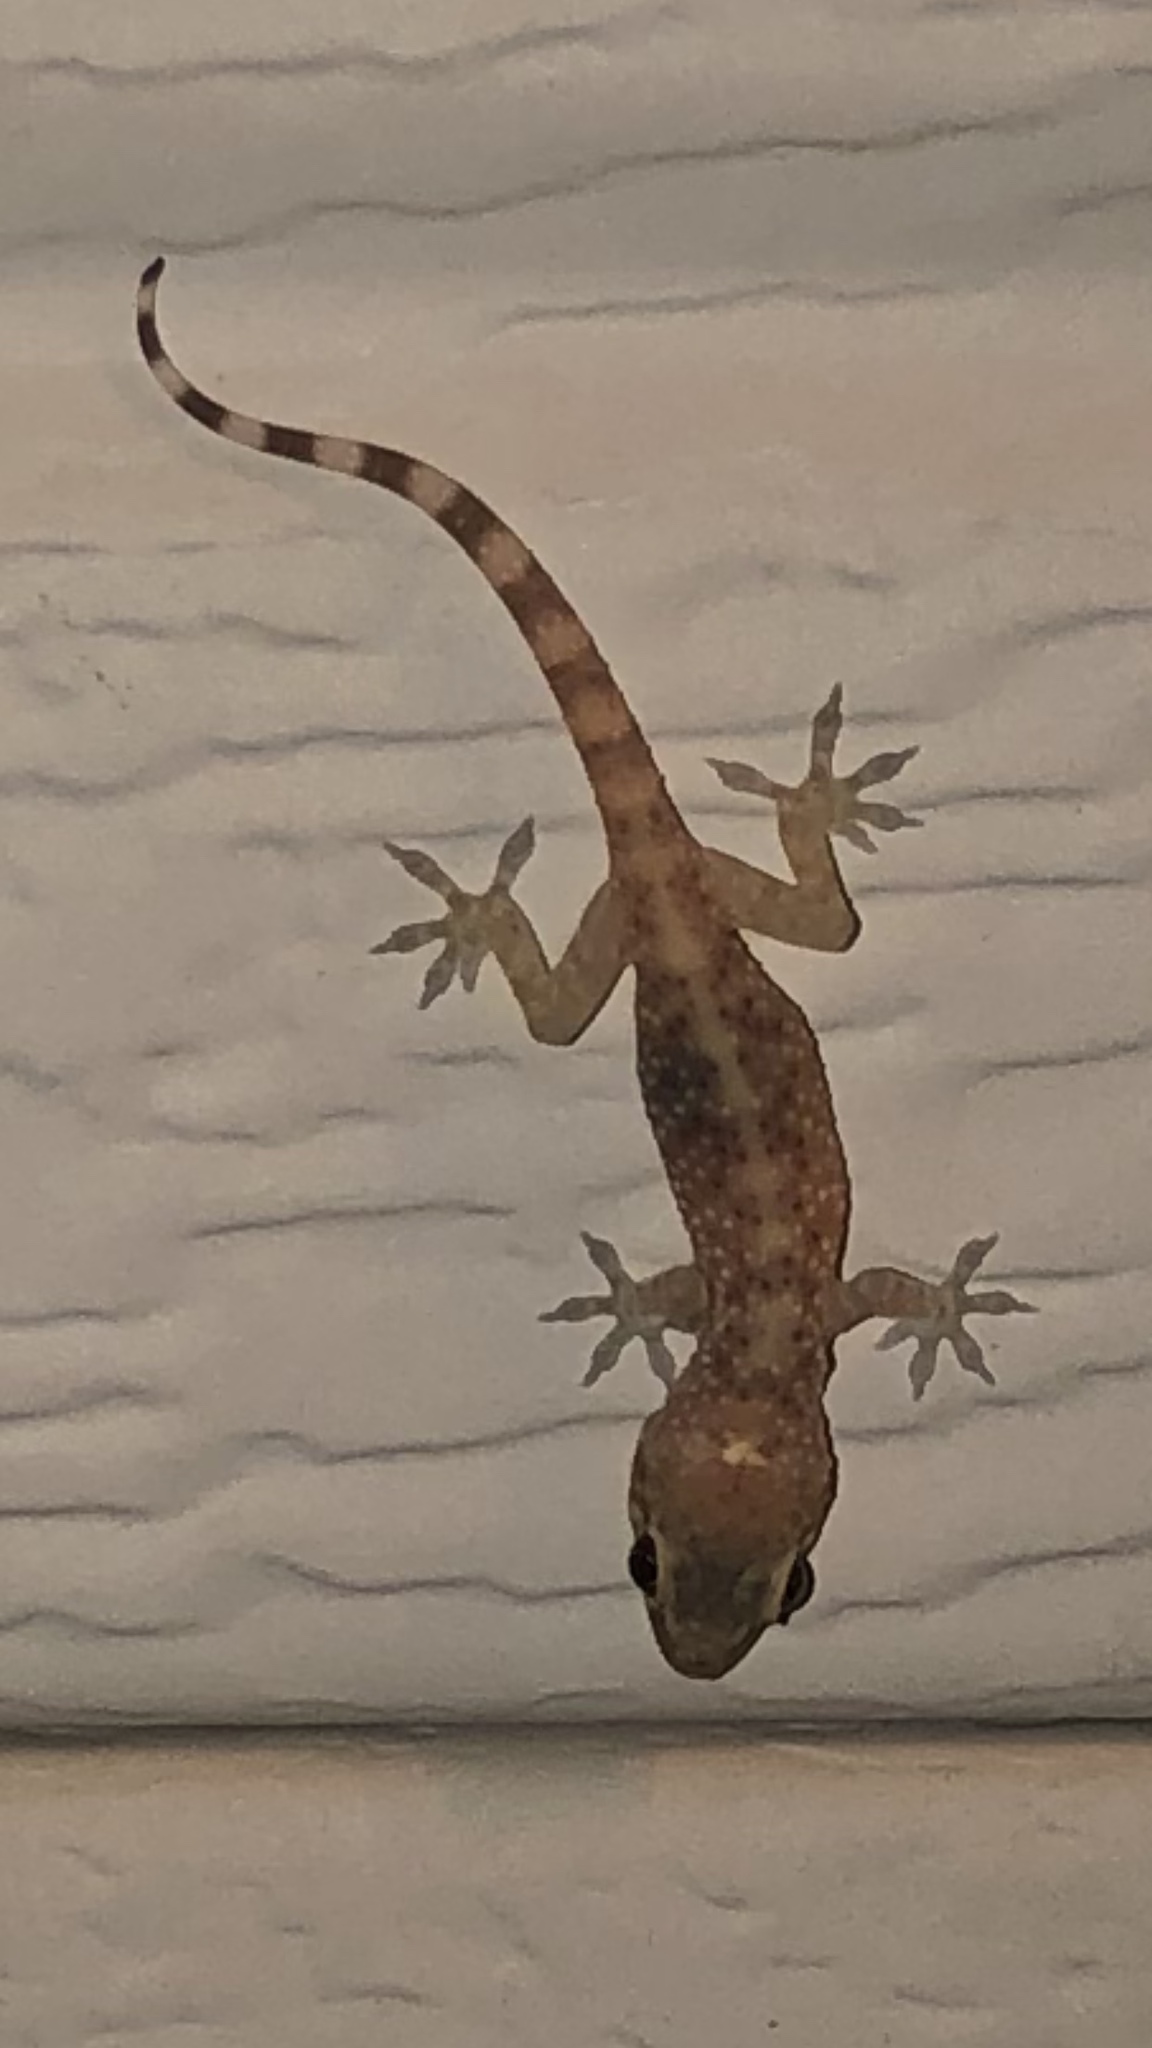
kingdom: Animalia
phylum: Chordata
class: Squamata
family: Gekkonidae
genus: Hemidactylus
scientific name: Hemidactylus turcicus
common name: Turkish gecko
